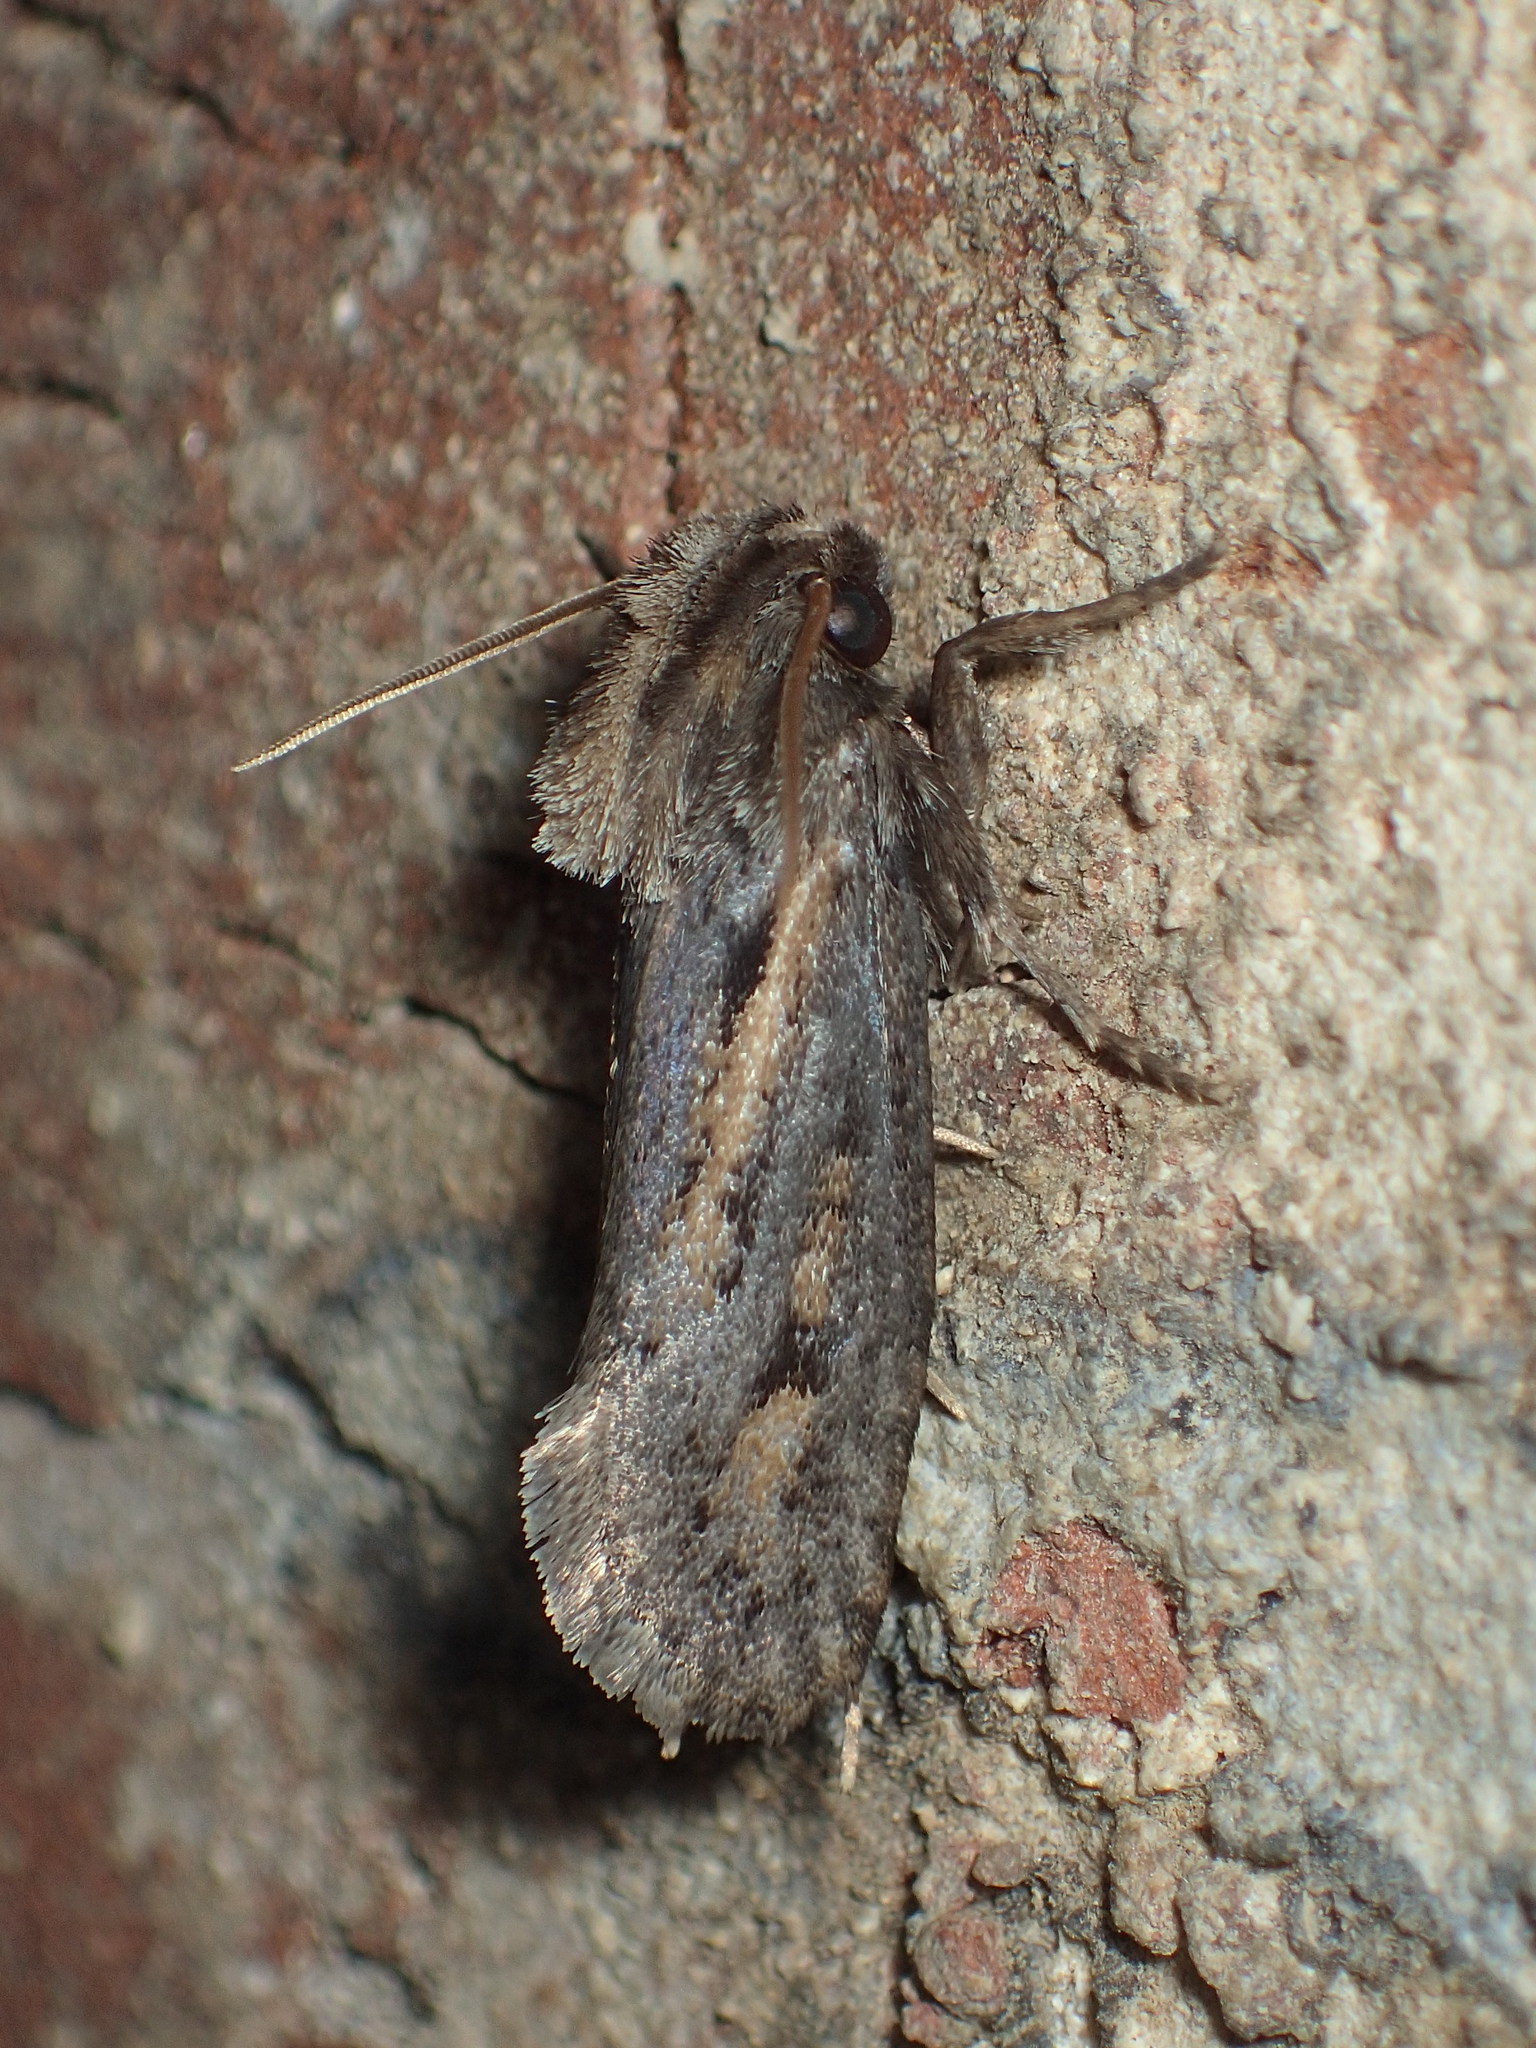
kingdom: Animalia
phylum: Arthropoda
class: Insecta
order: Lepidoptera
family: Tineidae
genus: Acrolophus
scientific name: Acrolophus popeanella
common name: Clemens' grass tubeworm moth
